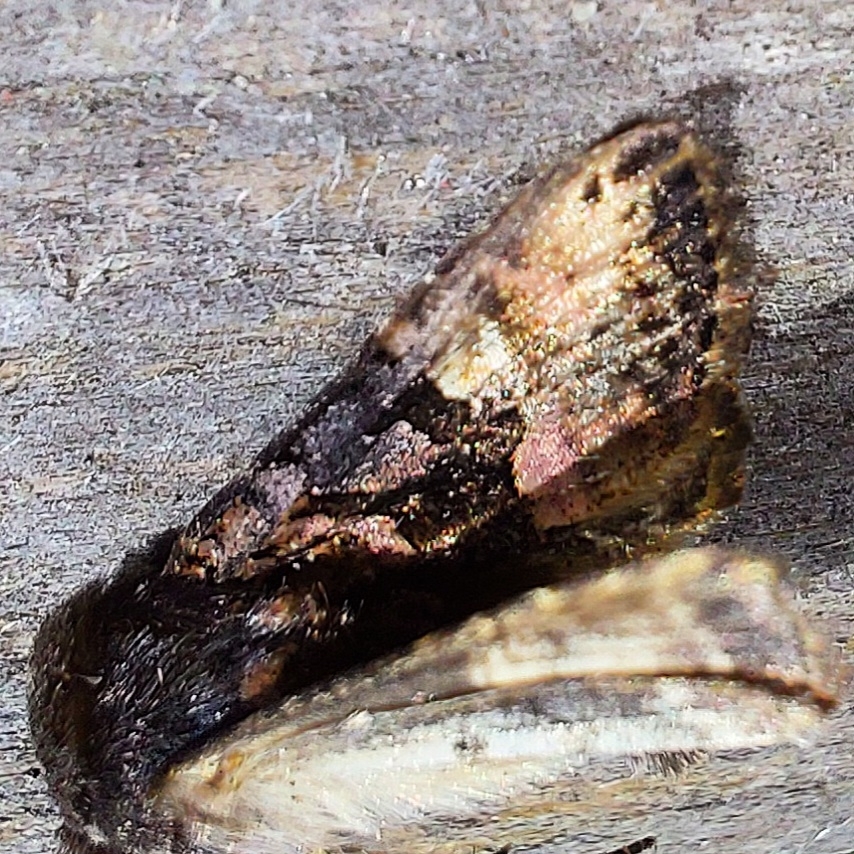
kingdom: Animalia
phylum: Arthropoda
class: Insecta
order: Lepidoptera
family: Noctuidae
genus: Euplexia
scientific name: Euplexia lucipara
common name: Small angle shades
